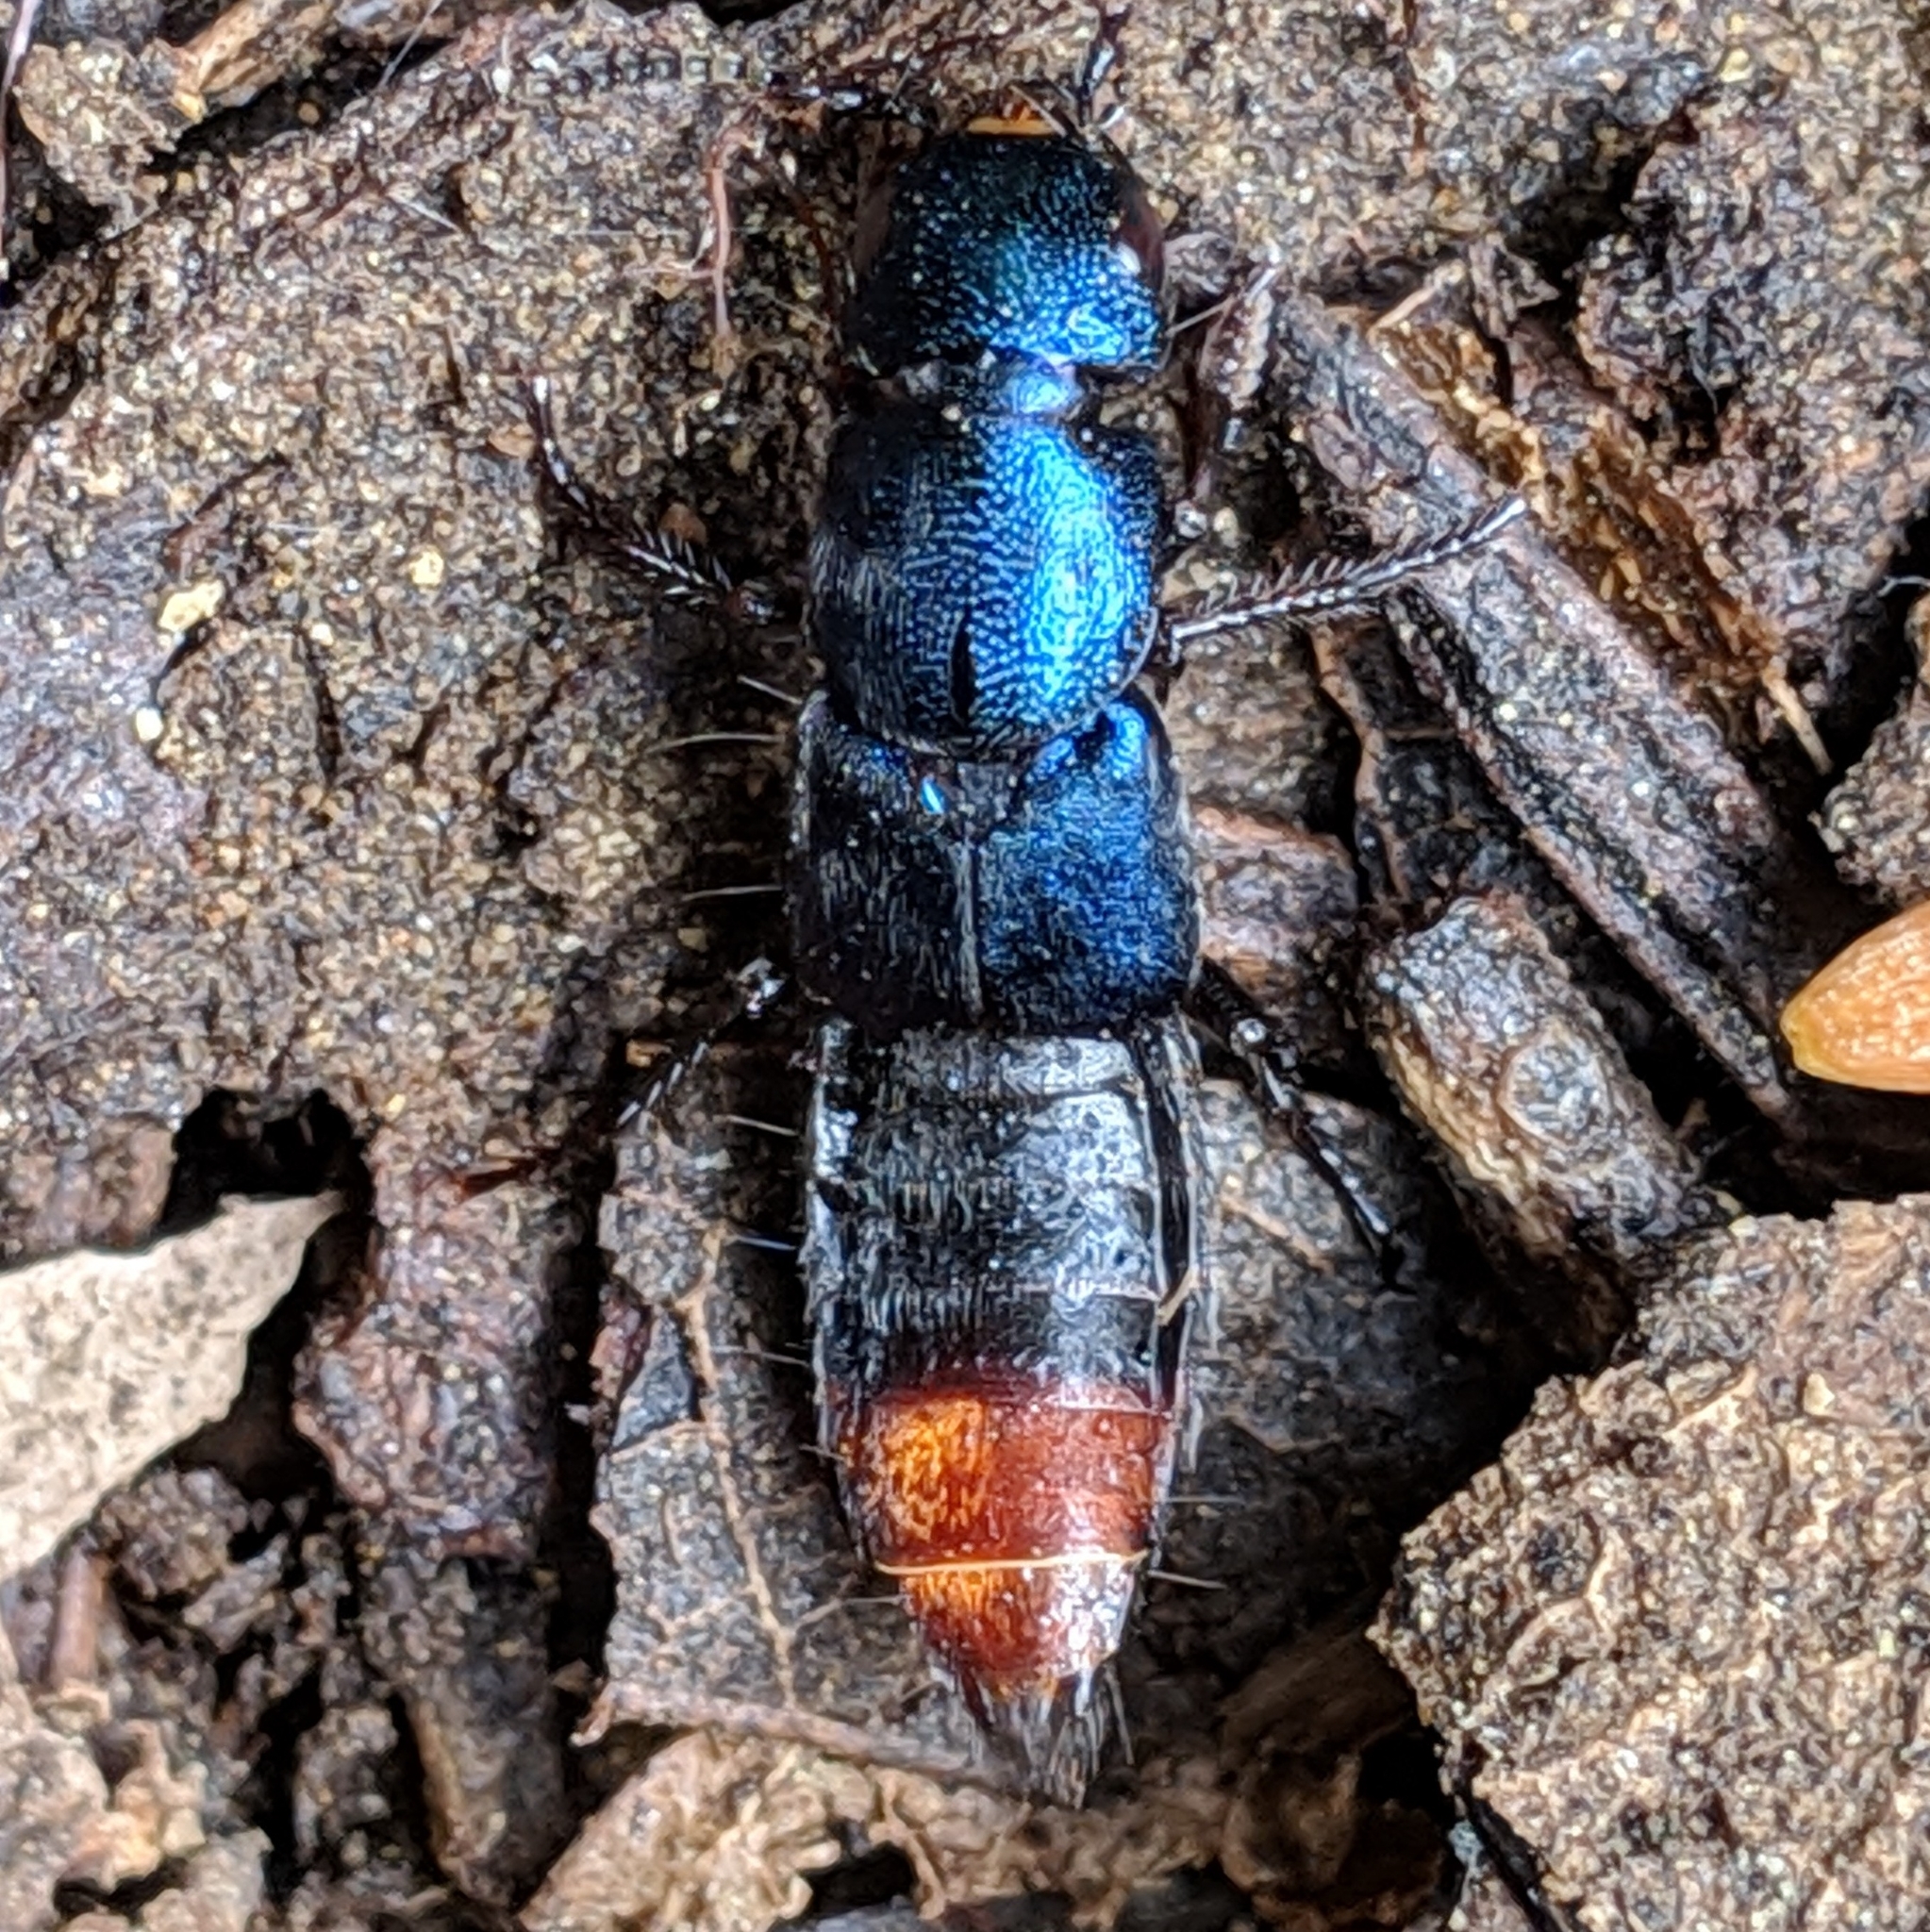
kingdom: Animalia
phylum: Arthropoda
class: Insecta
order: Coleoptera
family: Staphylinidae
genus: Platydracus
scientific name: Platydracus rutilicauda
